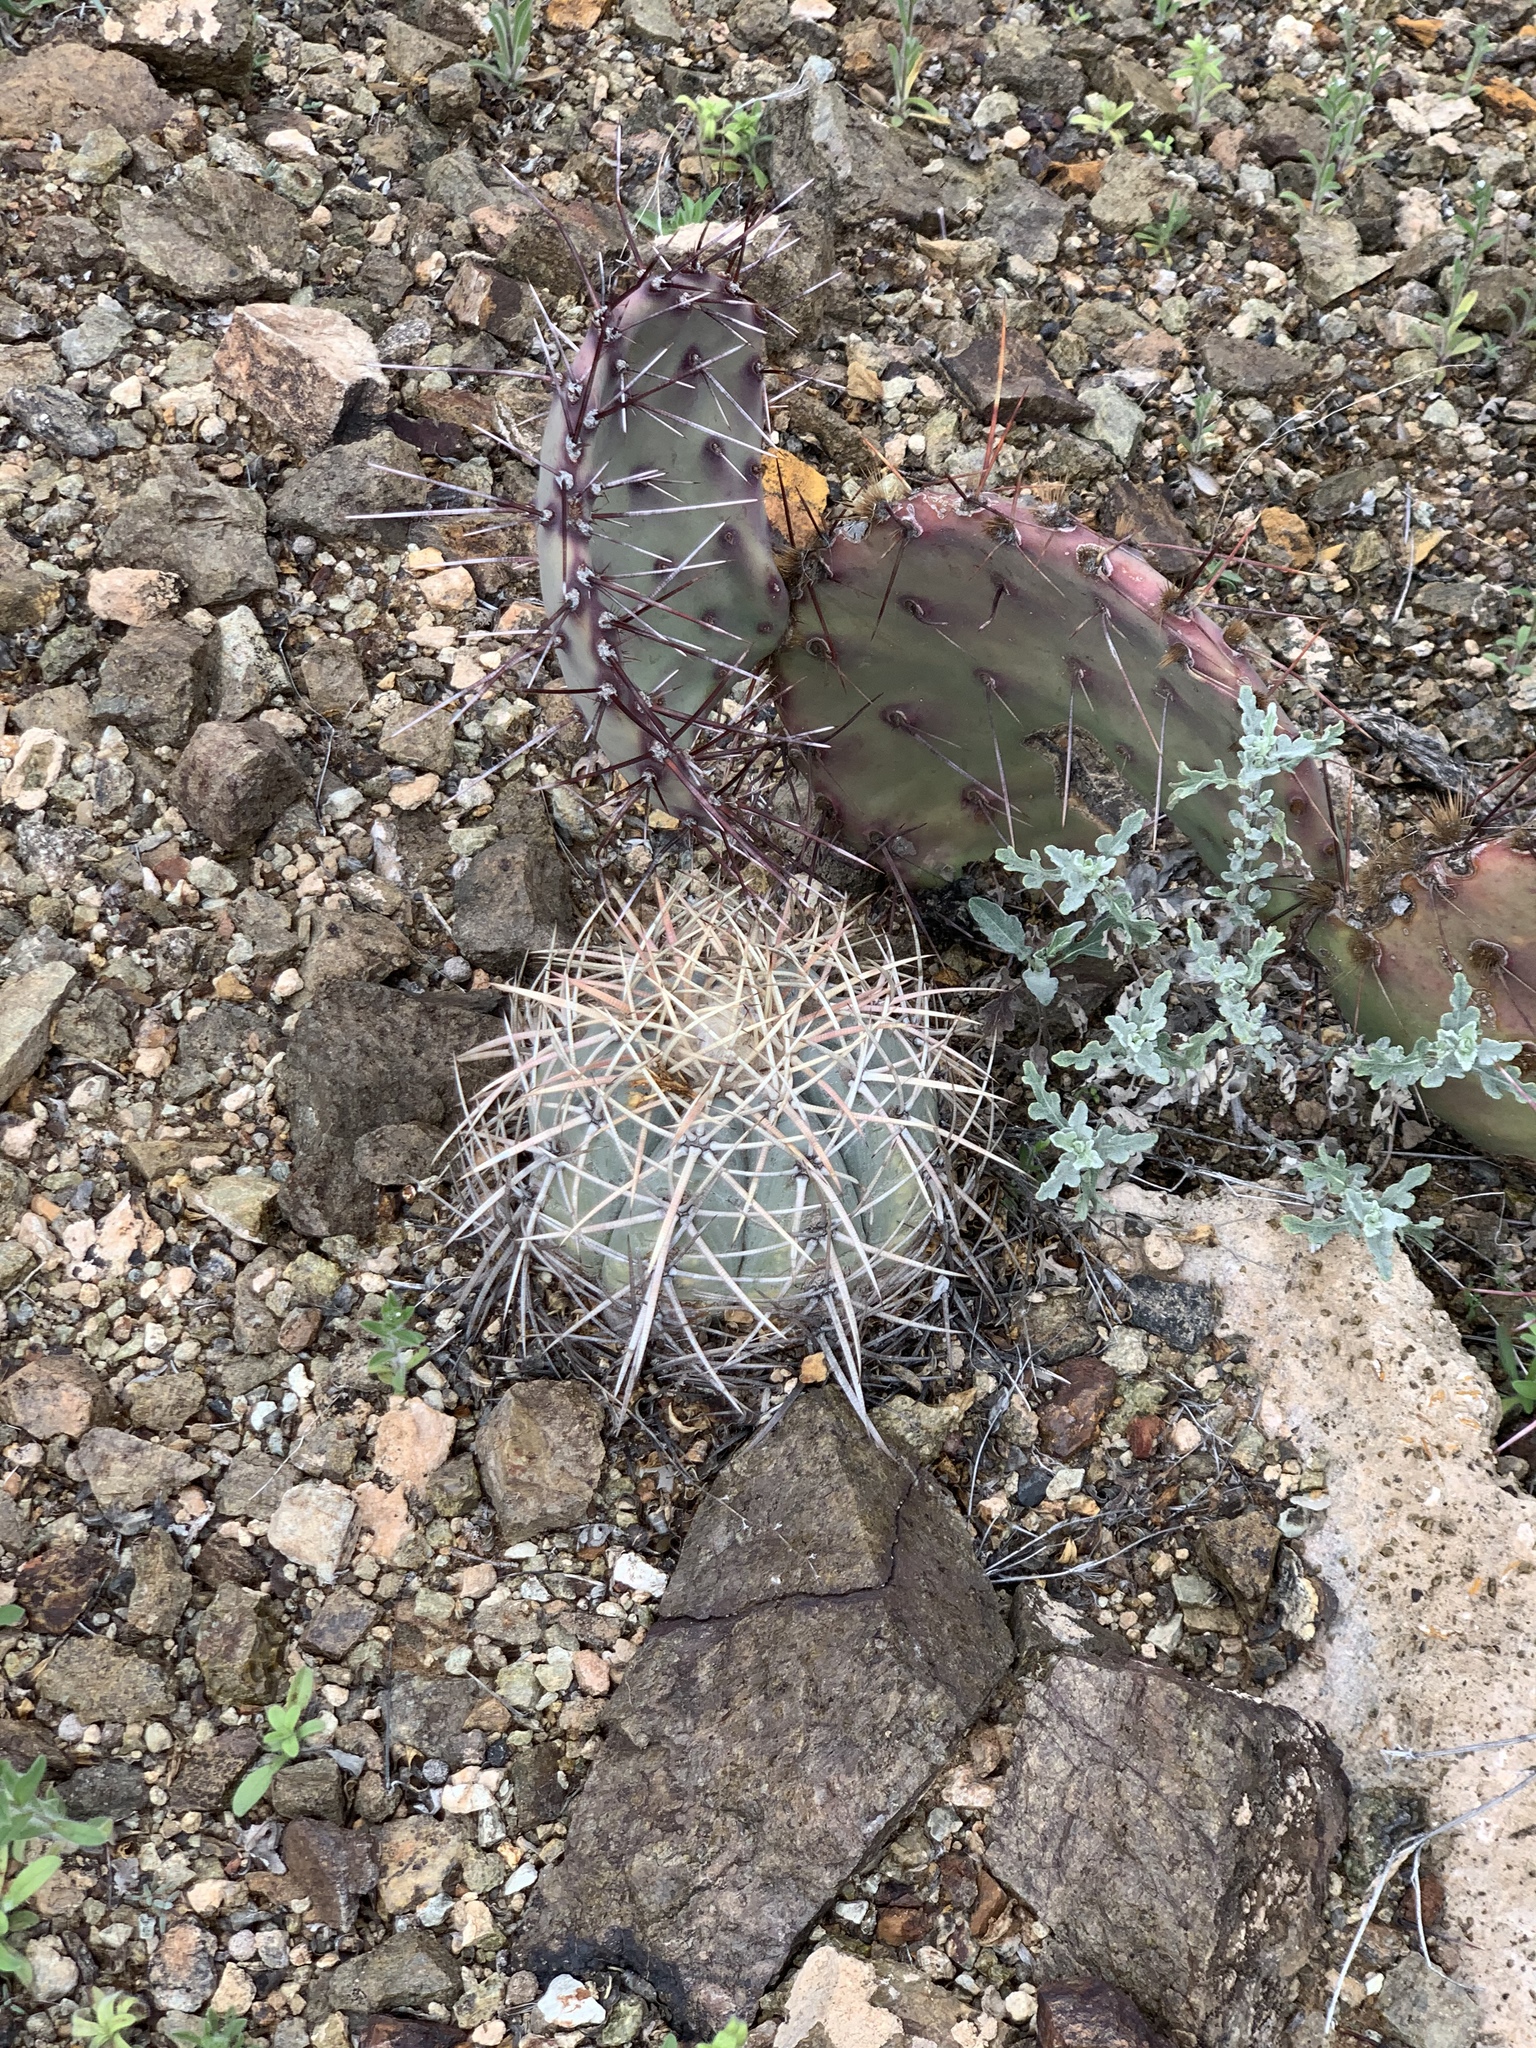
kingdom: Plantae
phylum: Tracheophyta
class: Magnoliopsida
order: Caryophyllales
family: Cactaceae
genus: Echinocactus
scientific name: Echinocactus horizonthalonius
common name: Devilshead
